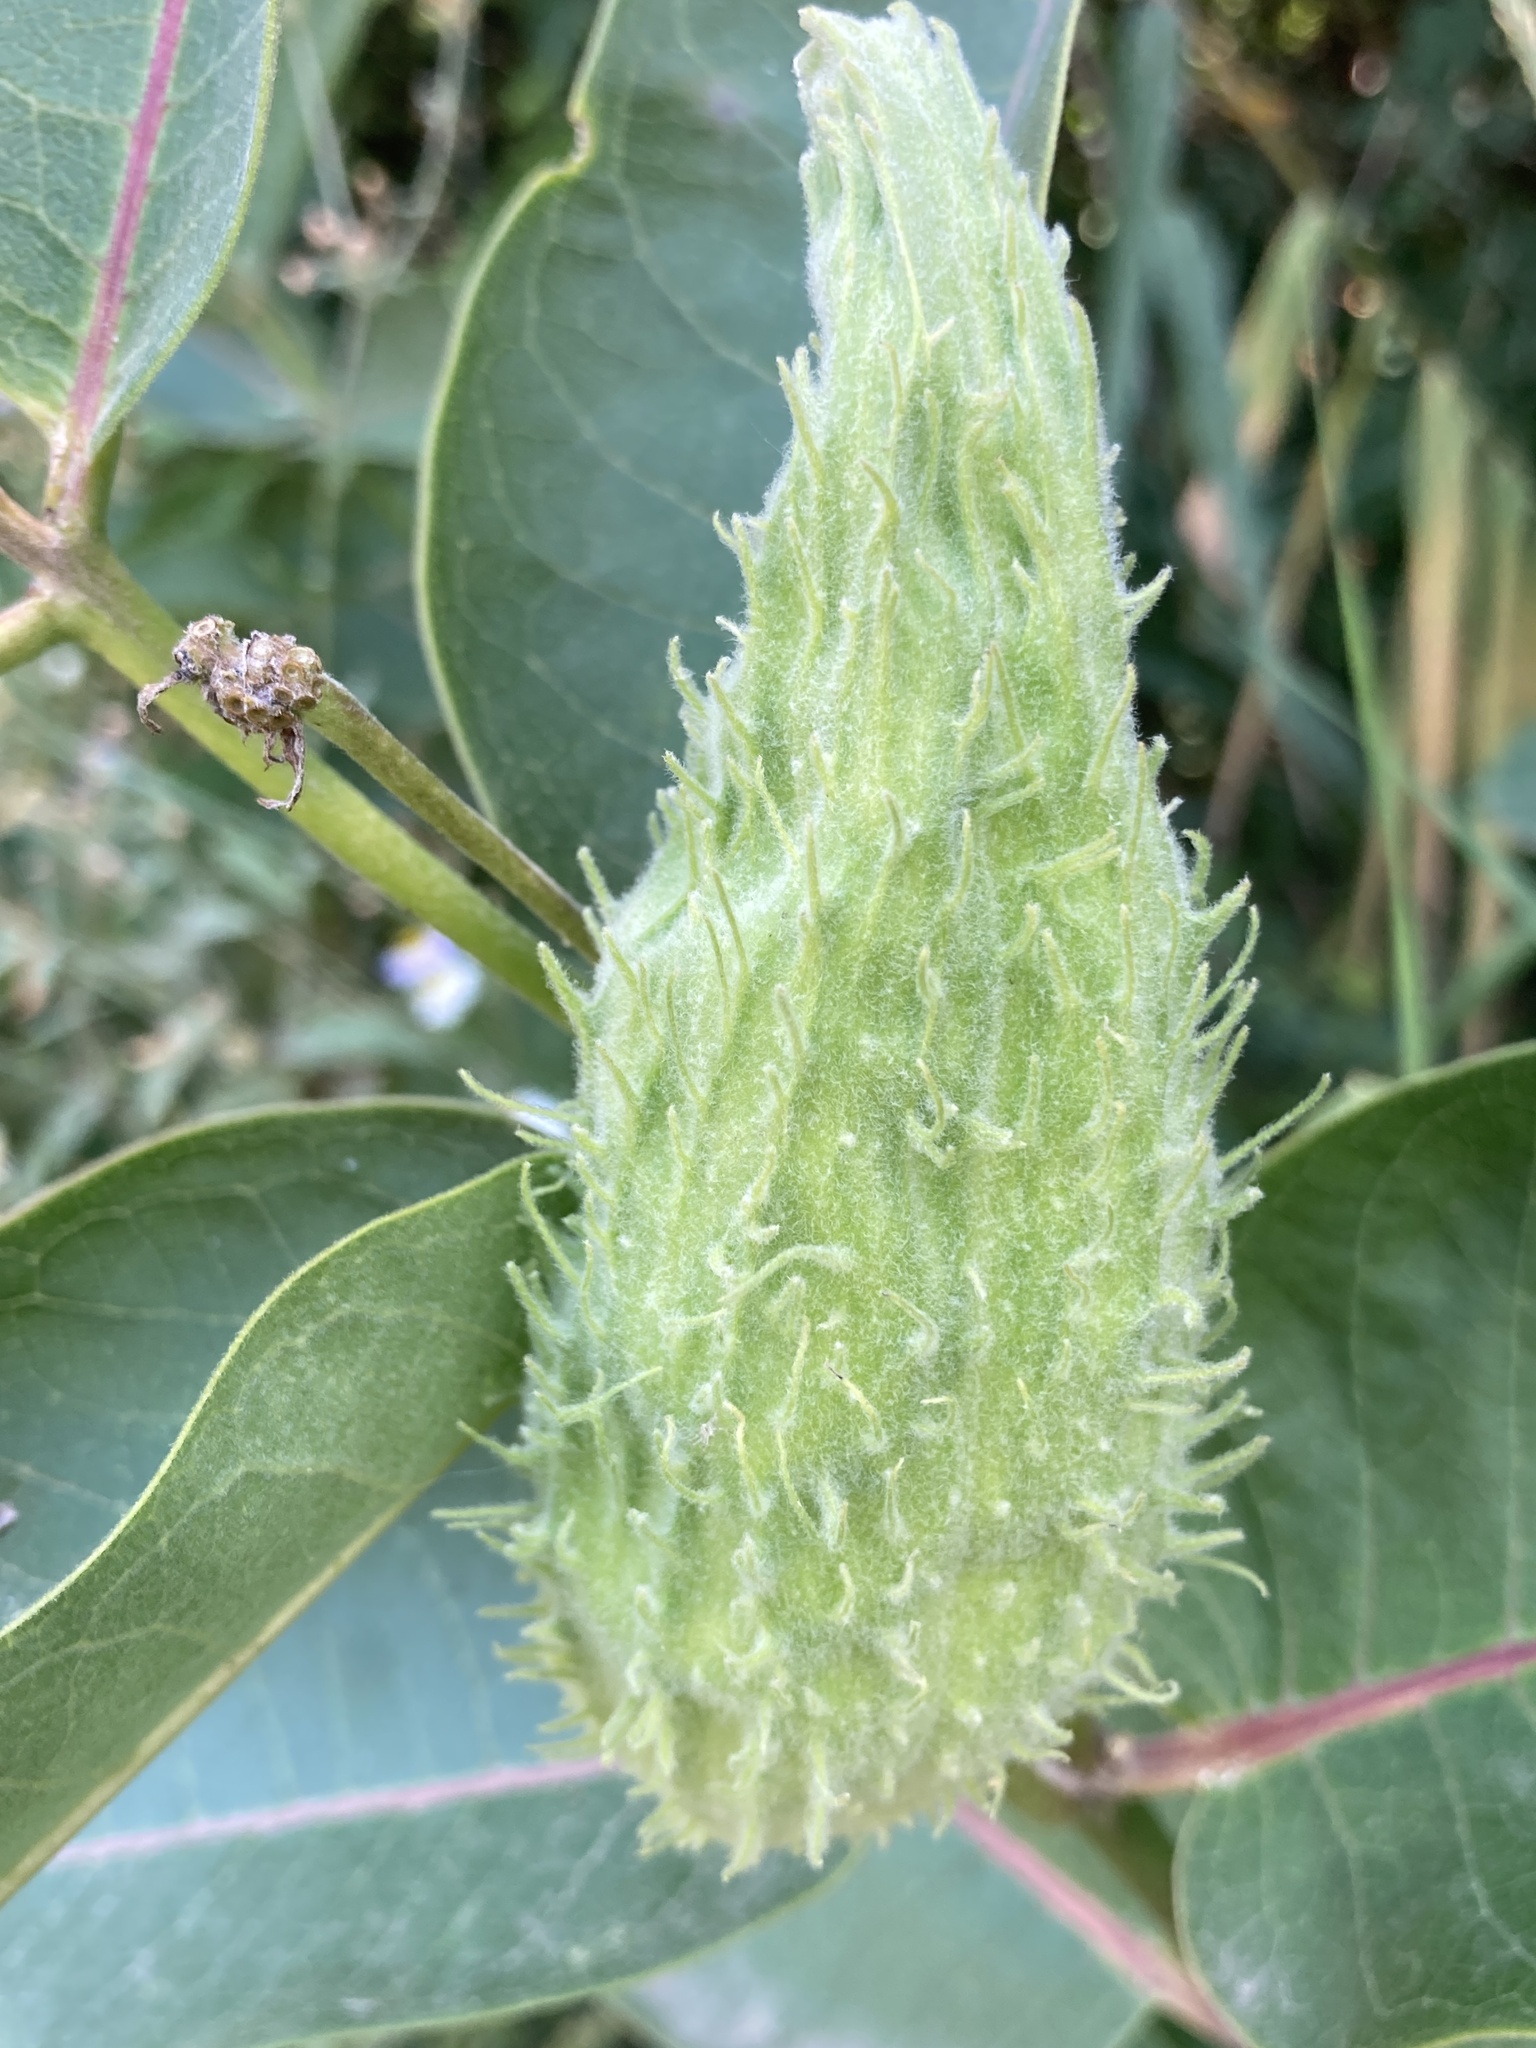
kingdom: Plantae
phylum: Tracheophyta
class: Magnoliopsida
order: Gentianales
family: Apocynaceae
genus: Asclepias
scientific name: Asclepias syriaca
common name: Common milkweed
